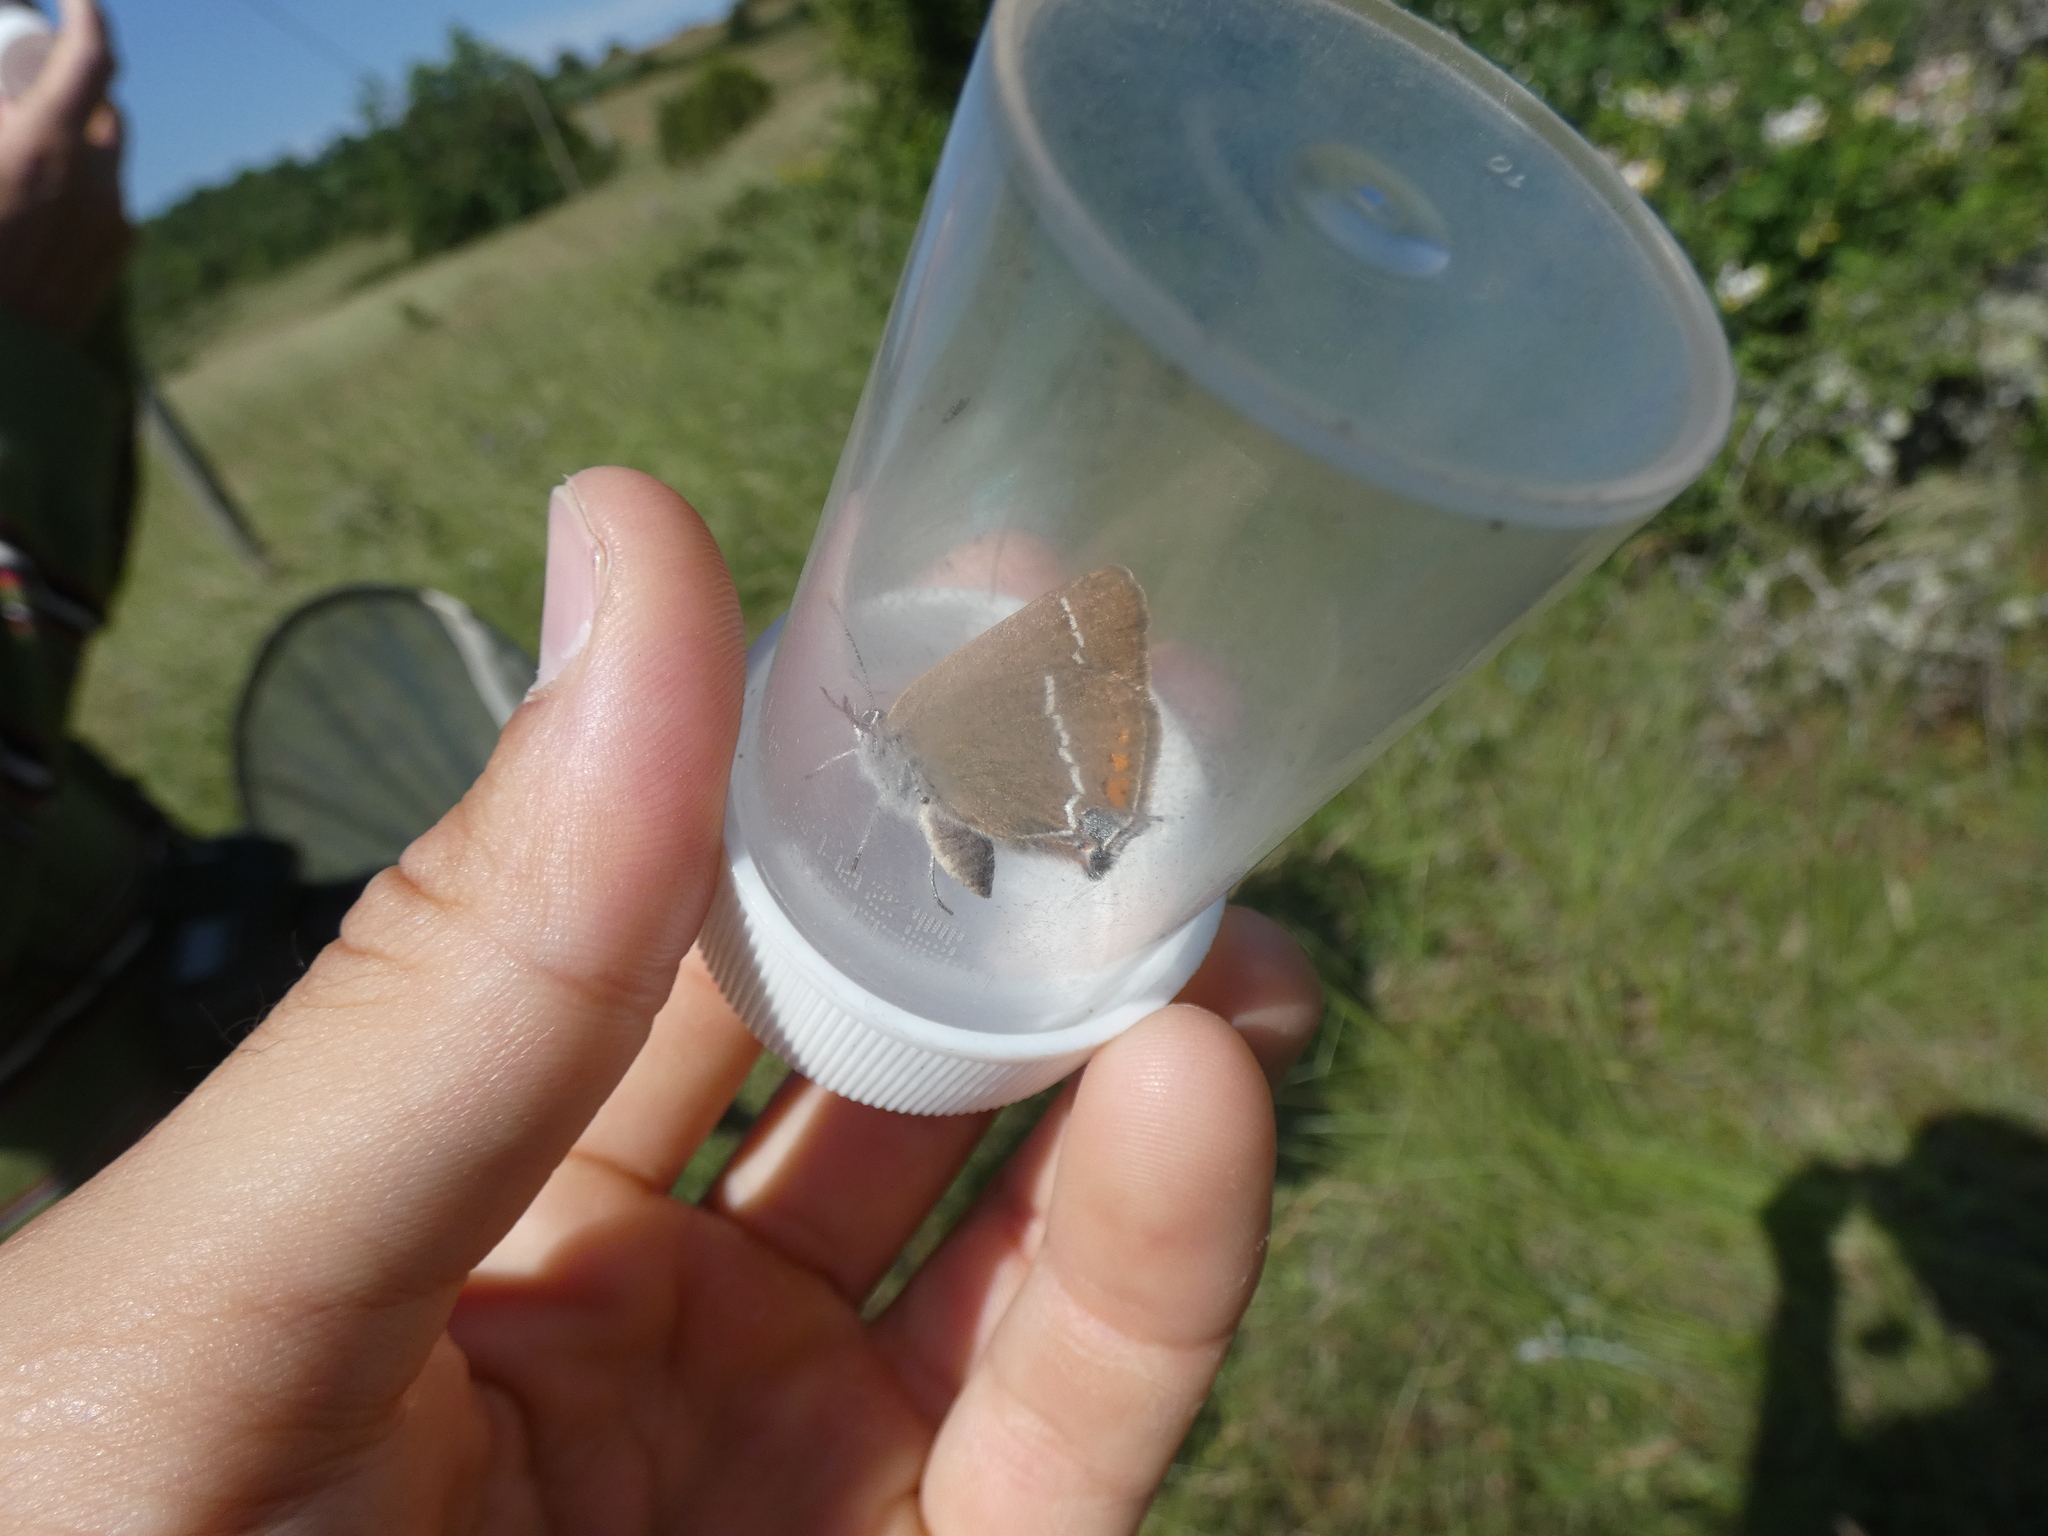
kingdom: Animalia
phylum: Arthropoda
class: Insecta
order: Lepidoptera
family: Lycaenidae
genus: Tuttiola
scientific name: Tuttiola spini
